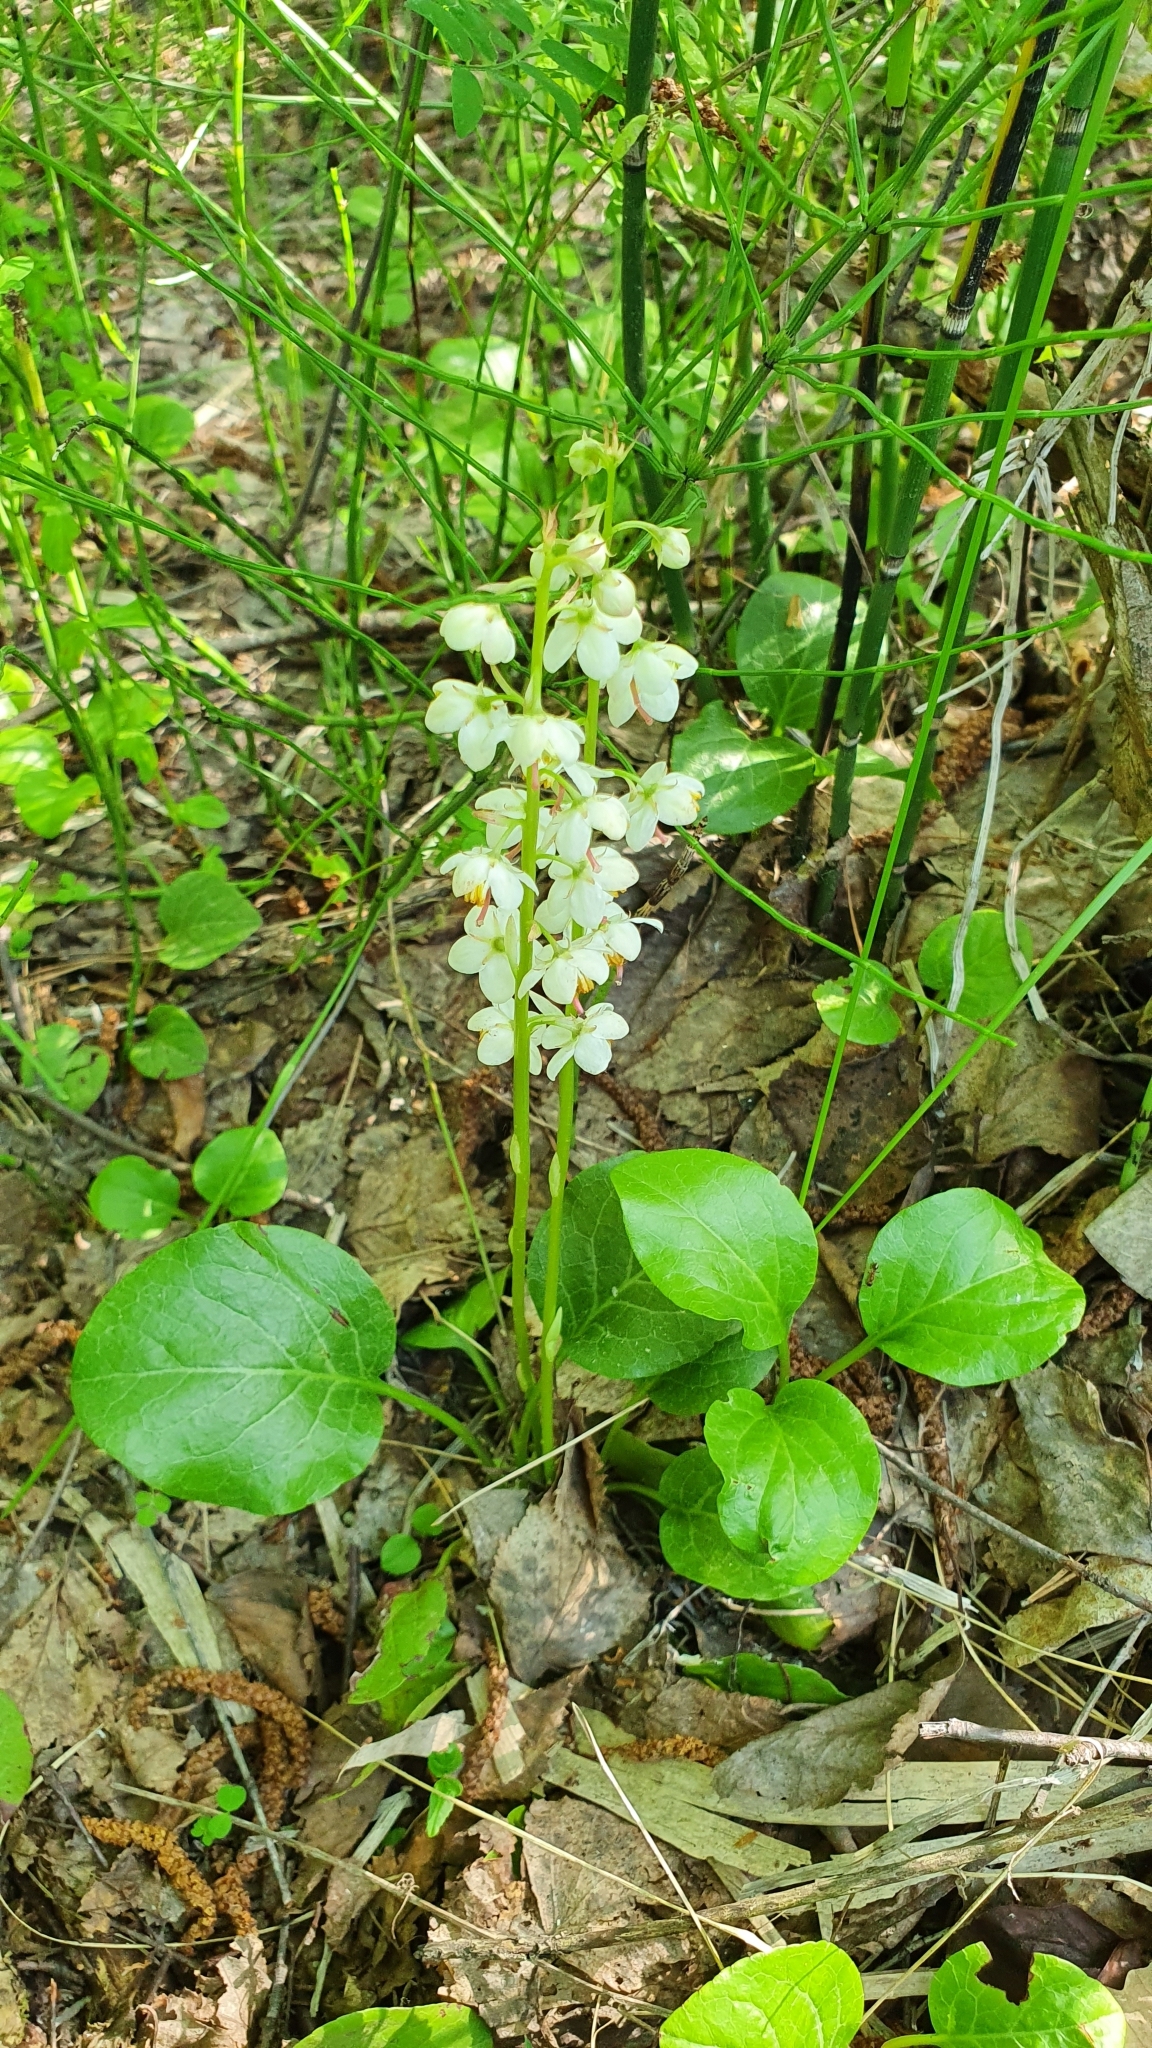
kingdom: Plantae
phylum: Tracheophyta
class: Magnoliopsida
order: Ericales
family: Ericaceae
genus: Pyrola
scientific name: Pyrola rotundifolia
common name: Round-leaved wintergreen
